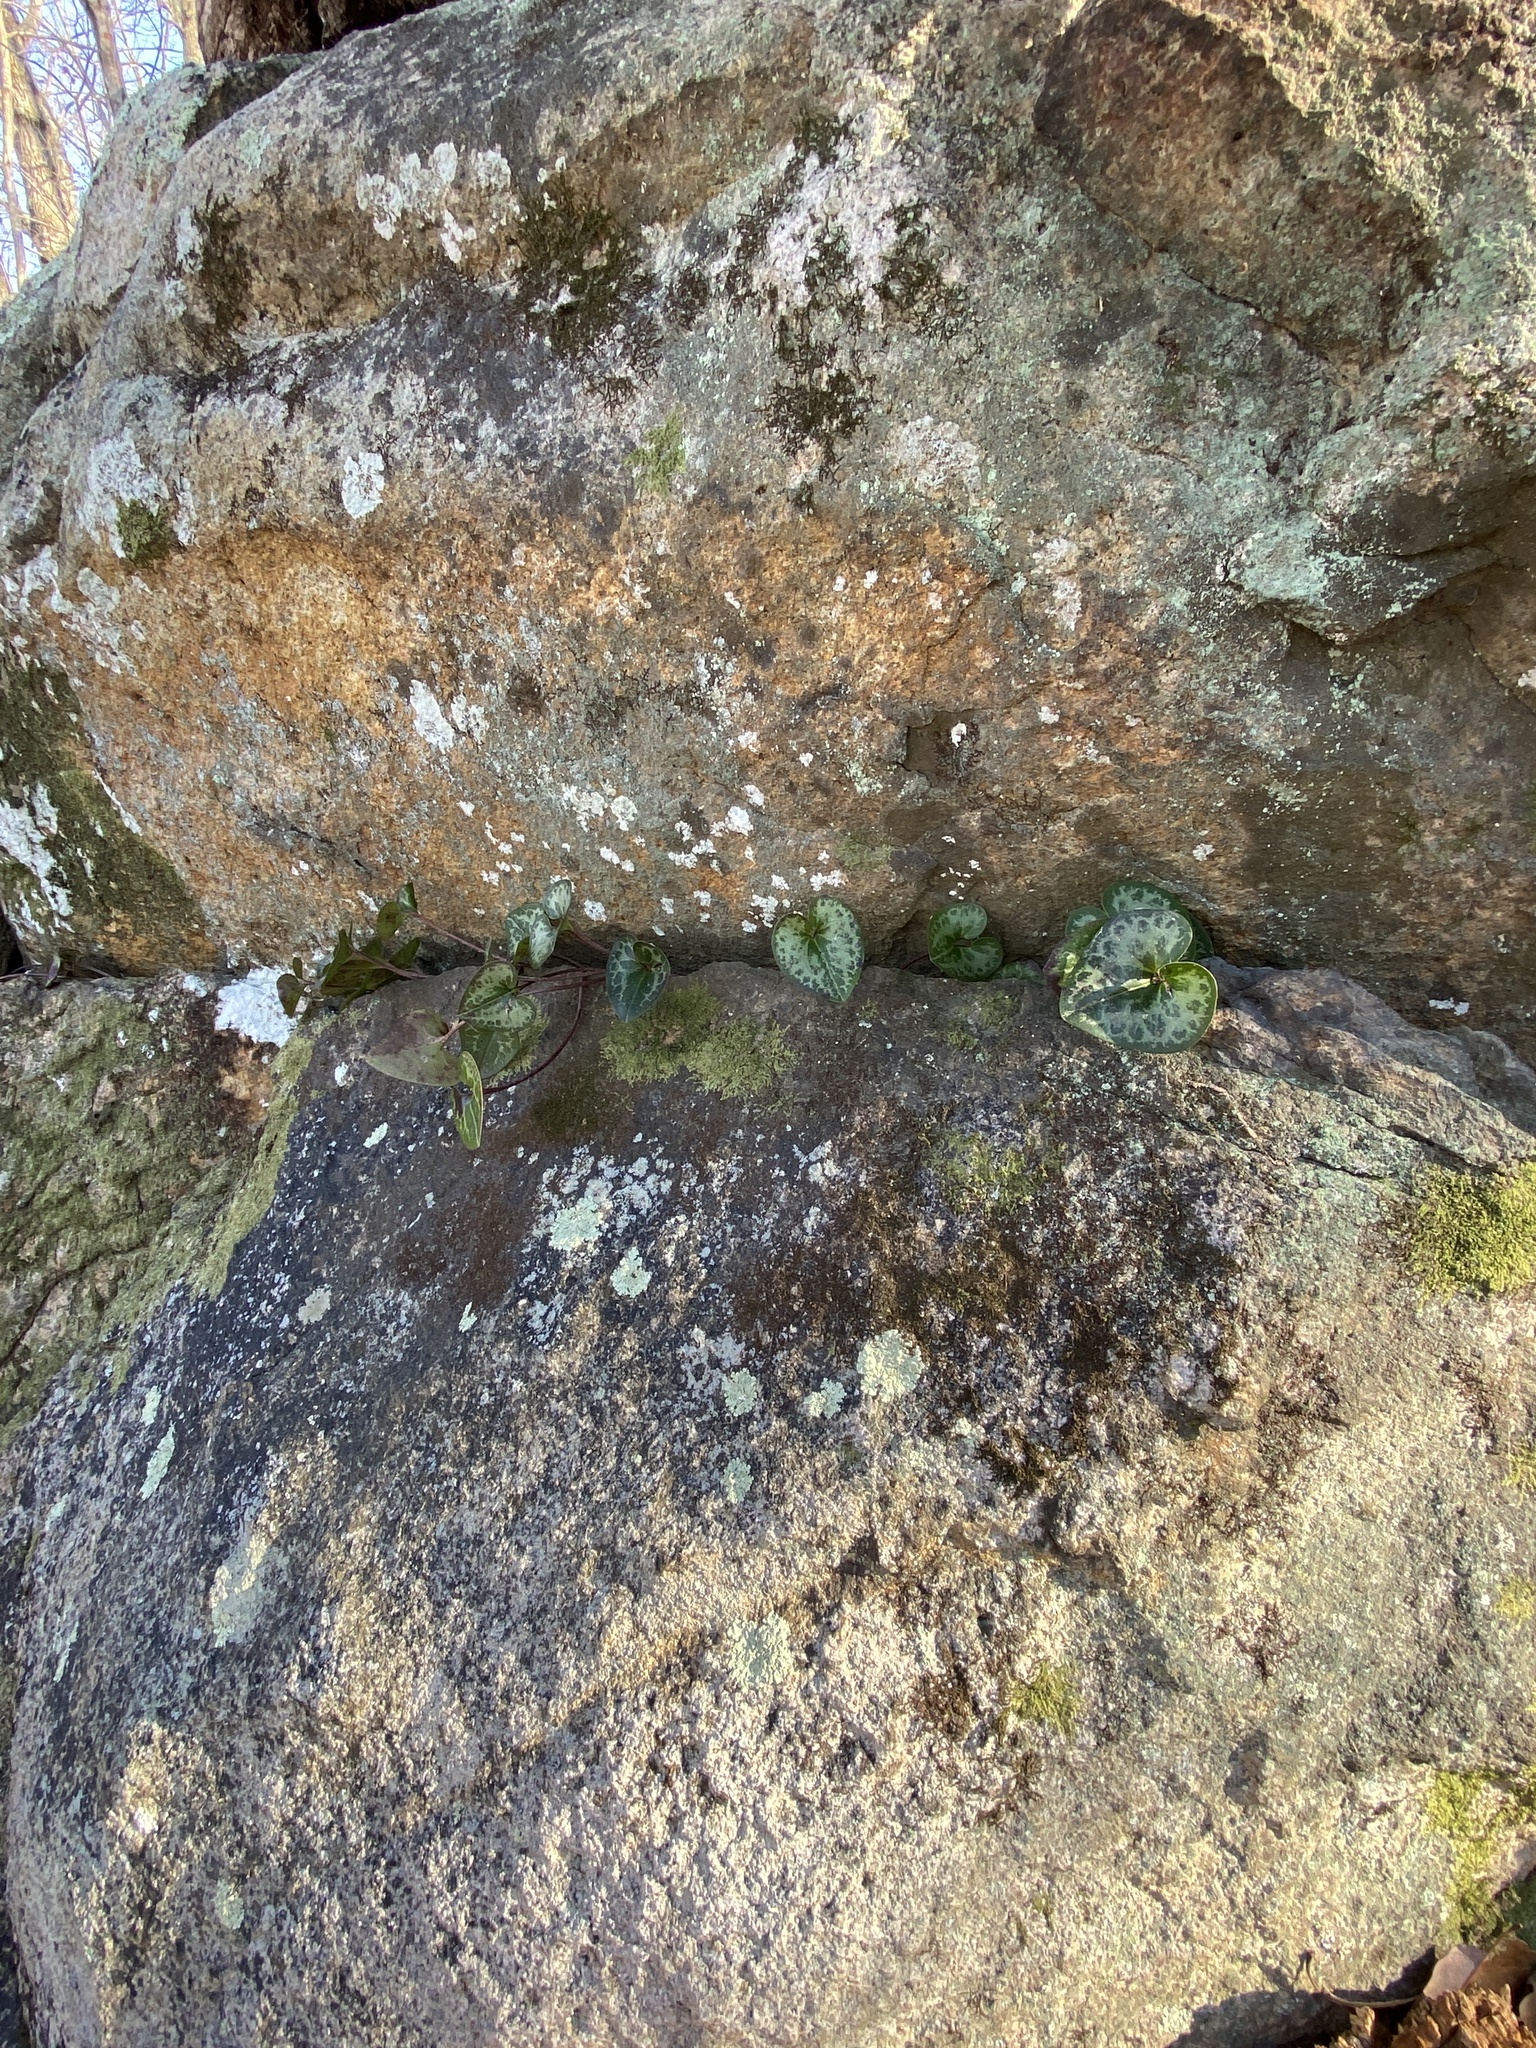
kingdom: Plantae
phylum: Tracheophyta
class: Magnoliopsida
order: Piperales
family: Aristolochiaceae
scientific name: Aristolochiaceae
